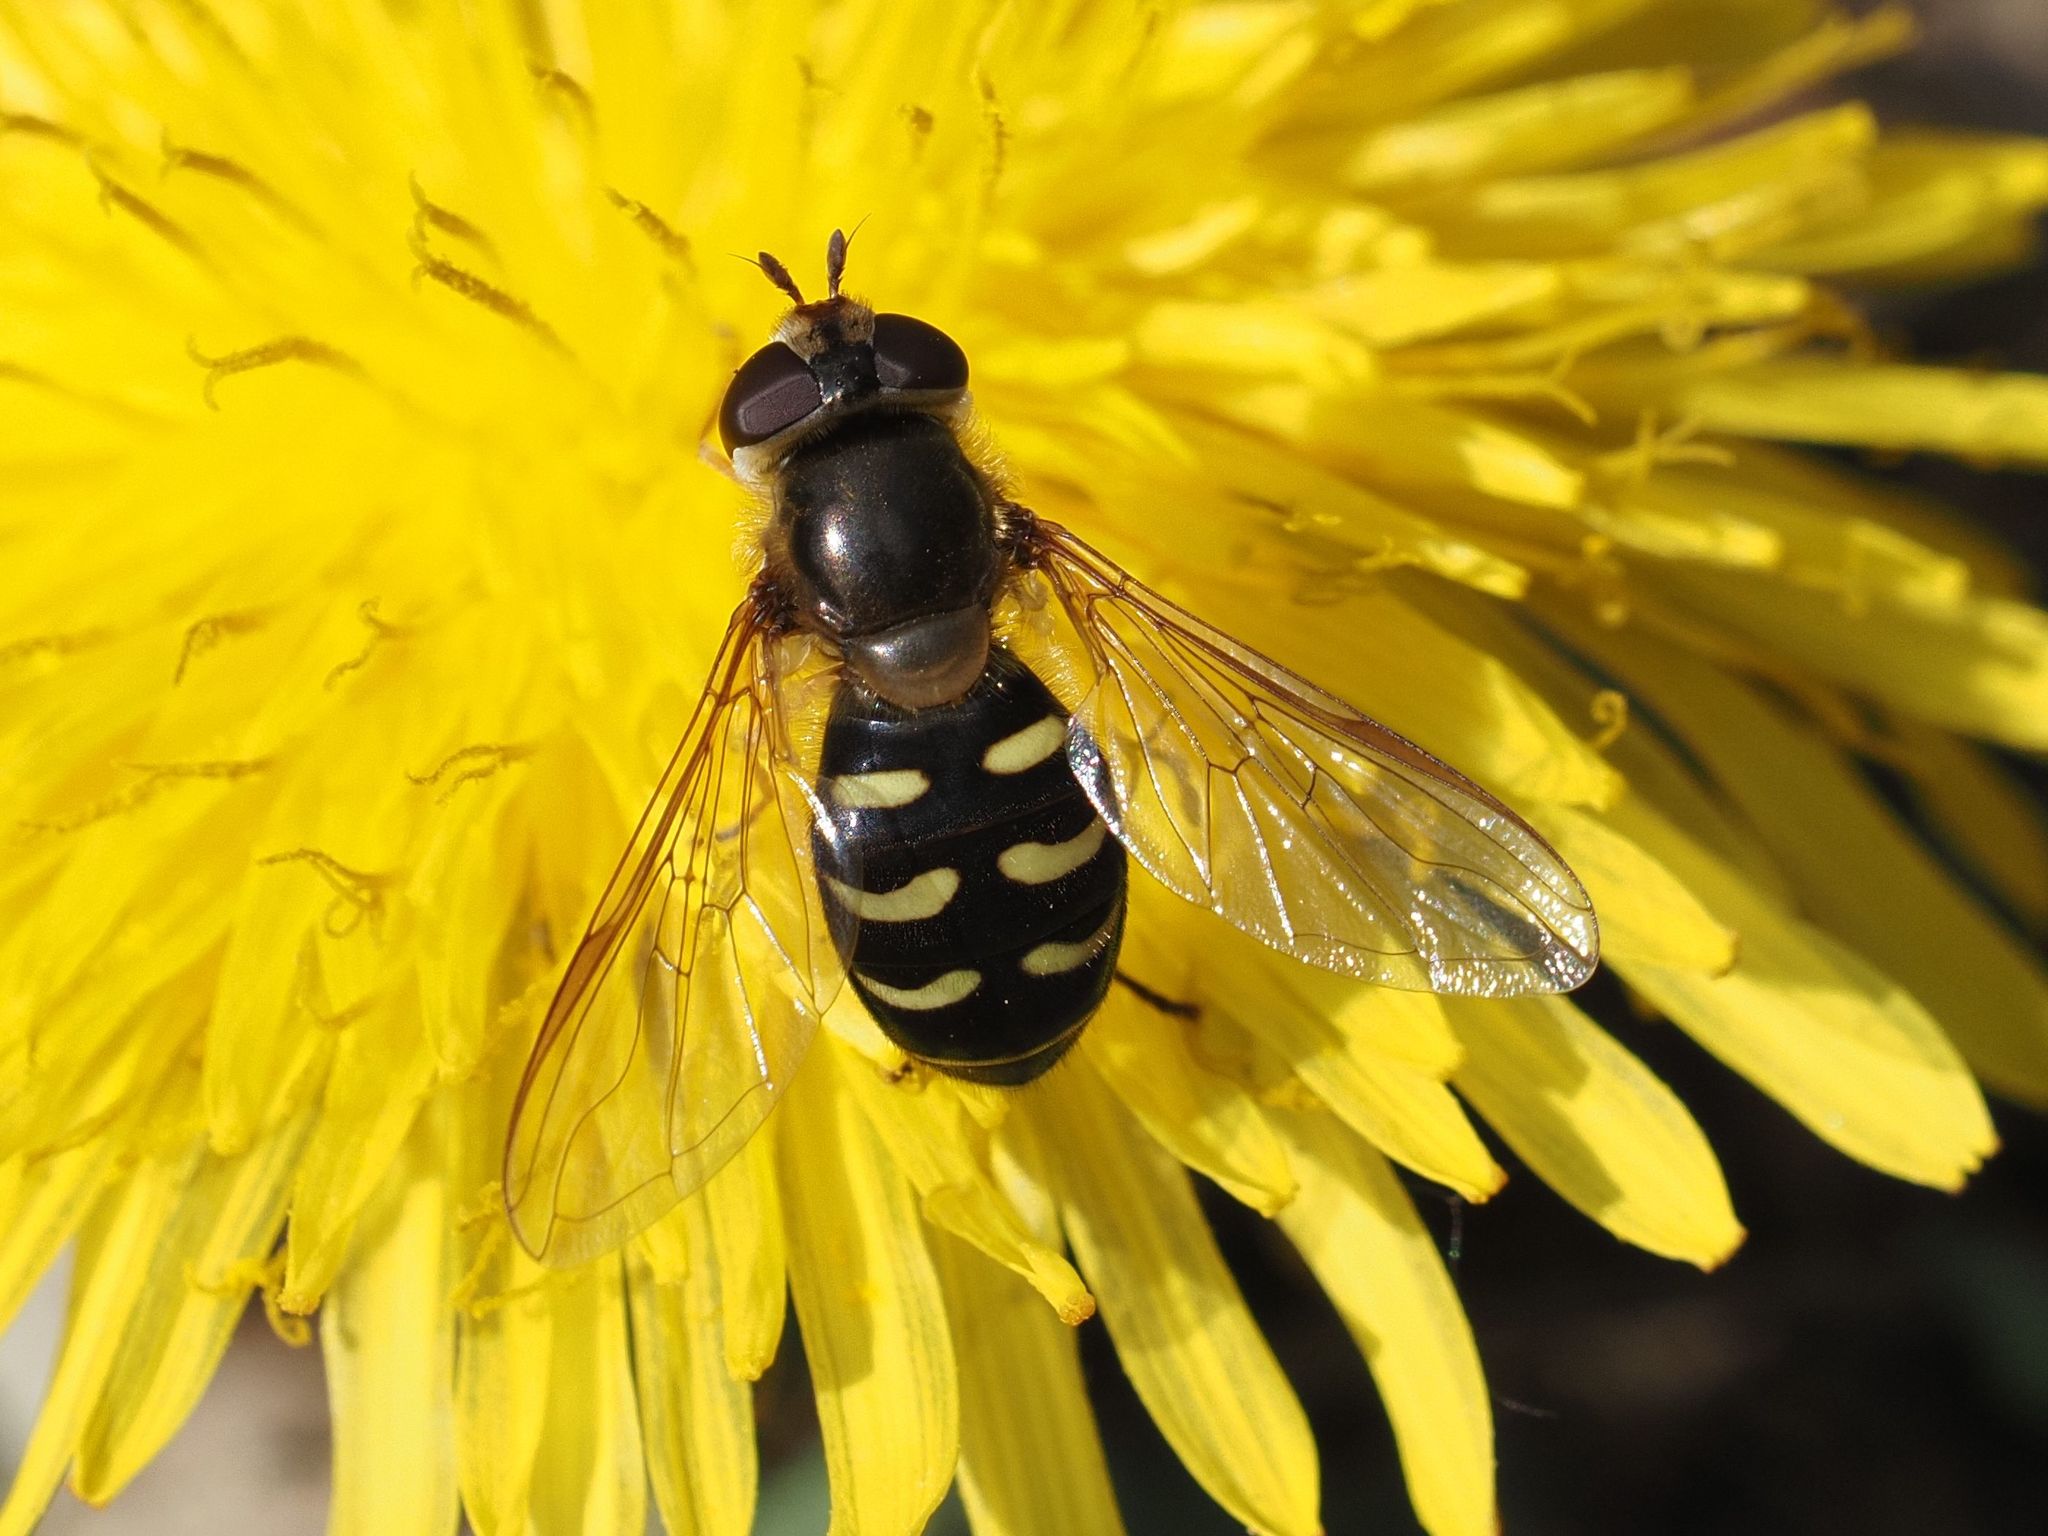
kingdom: Animalia
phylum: Arthropoda
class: Insecta
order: Diptera
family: Syrphidae
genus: Lapposyrphus
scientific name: Lapposyrphus lapponicus
